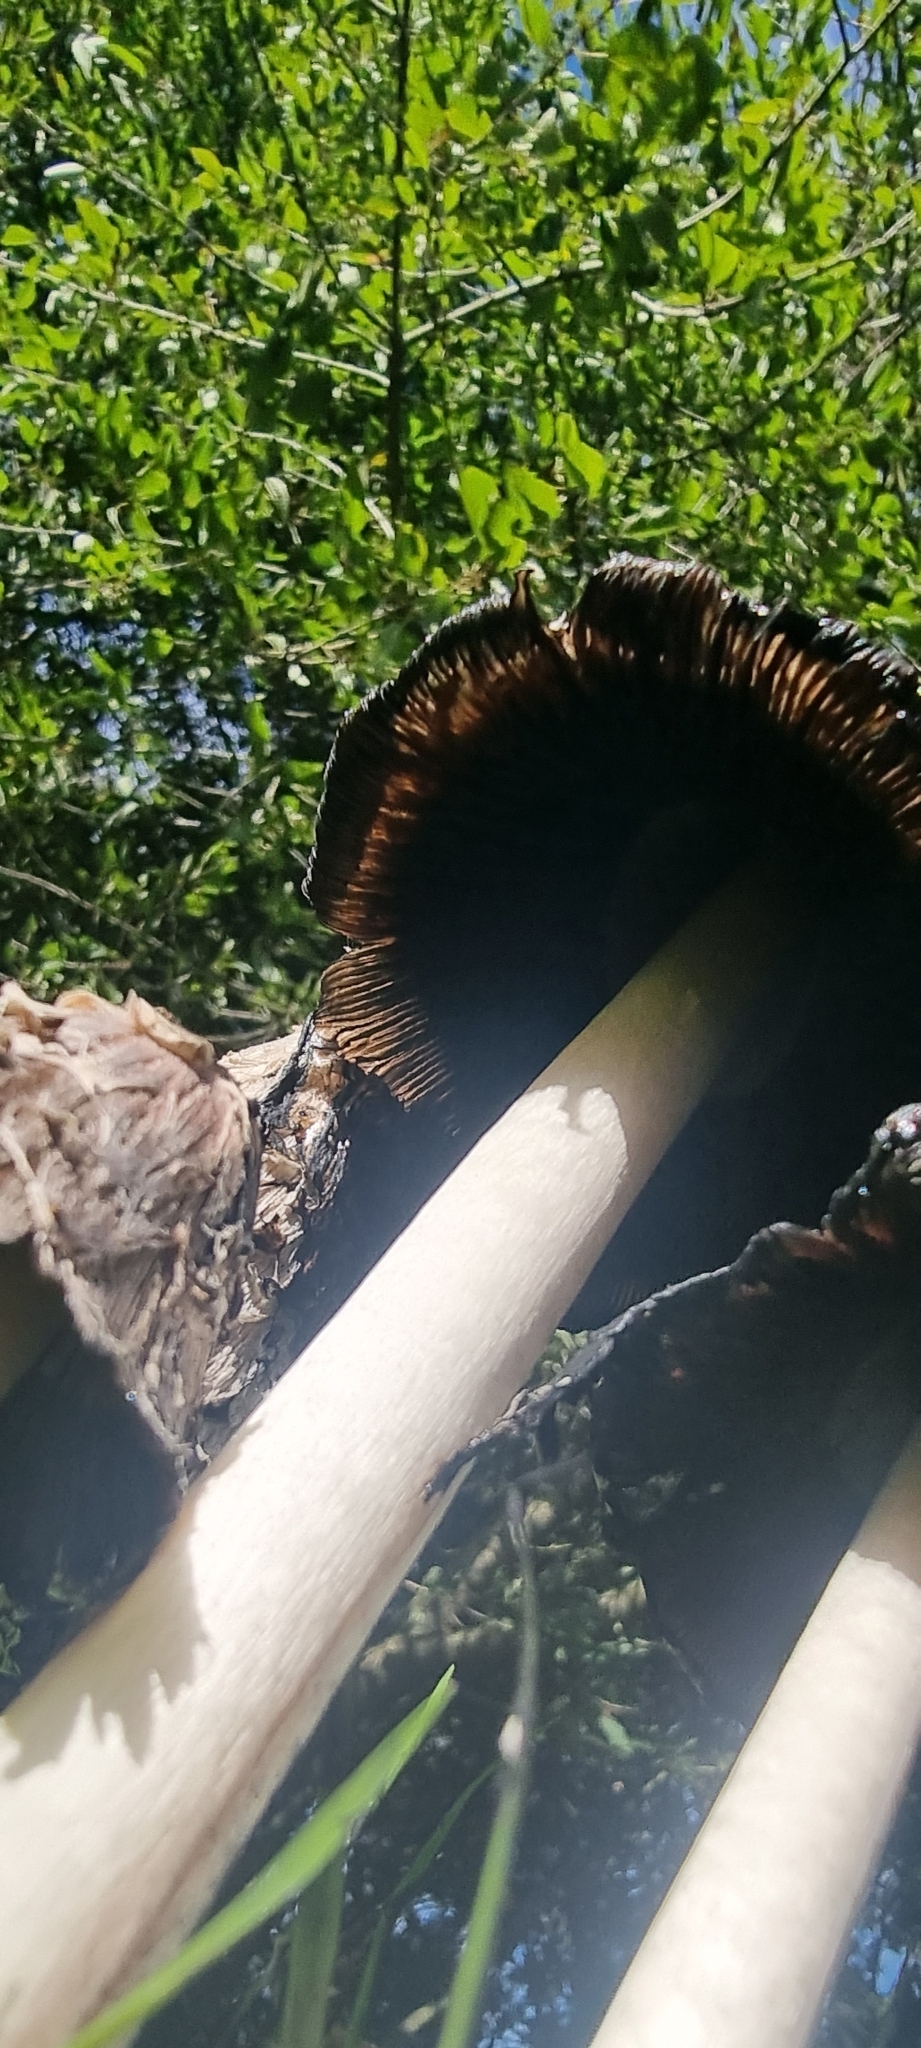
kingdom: Fungi
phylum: Basidiomycota
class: Agaricomycetes
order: Agaricales
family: Agaricaceae
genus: Coprinus
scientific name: Coprinus comatus
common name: Lawyer's wig
